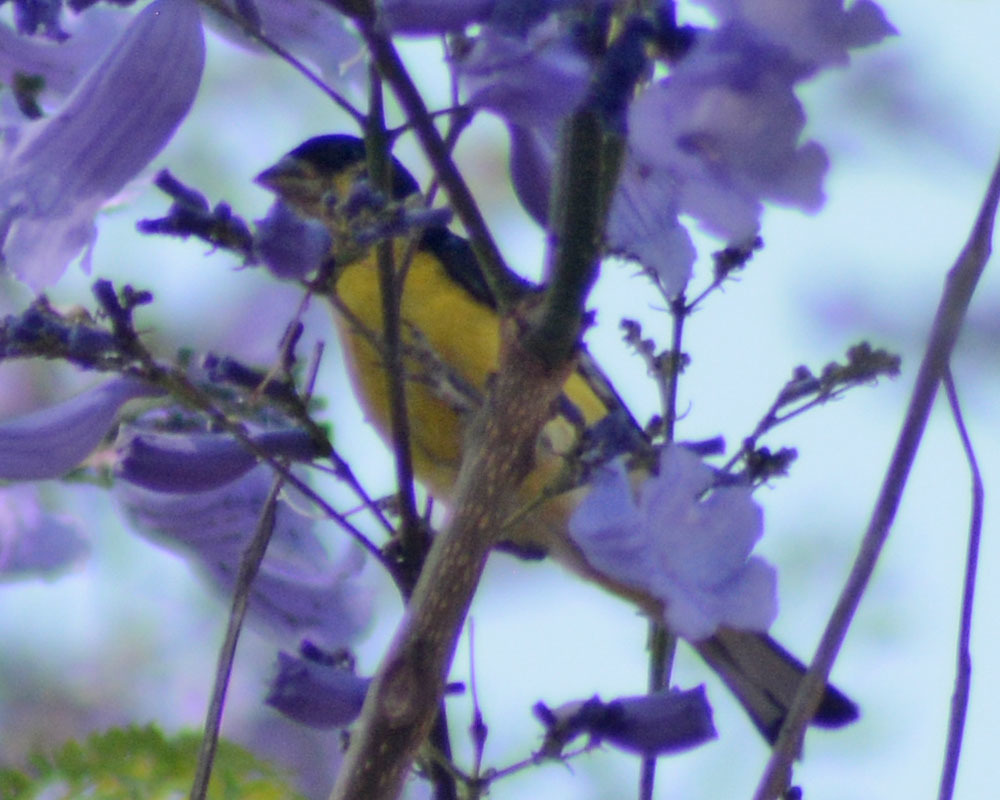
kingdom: Animalia
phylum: Chordata
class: Aves
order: Passeriformes
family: Fringillidae
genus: Spinus
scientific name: Spinus psaltria
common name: Lesser goldfinch
